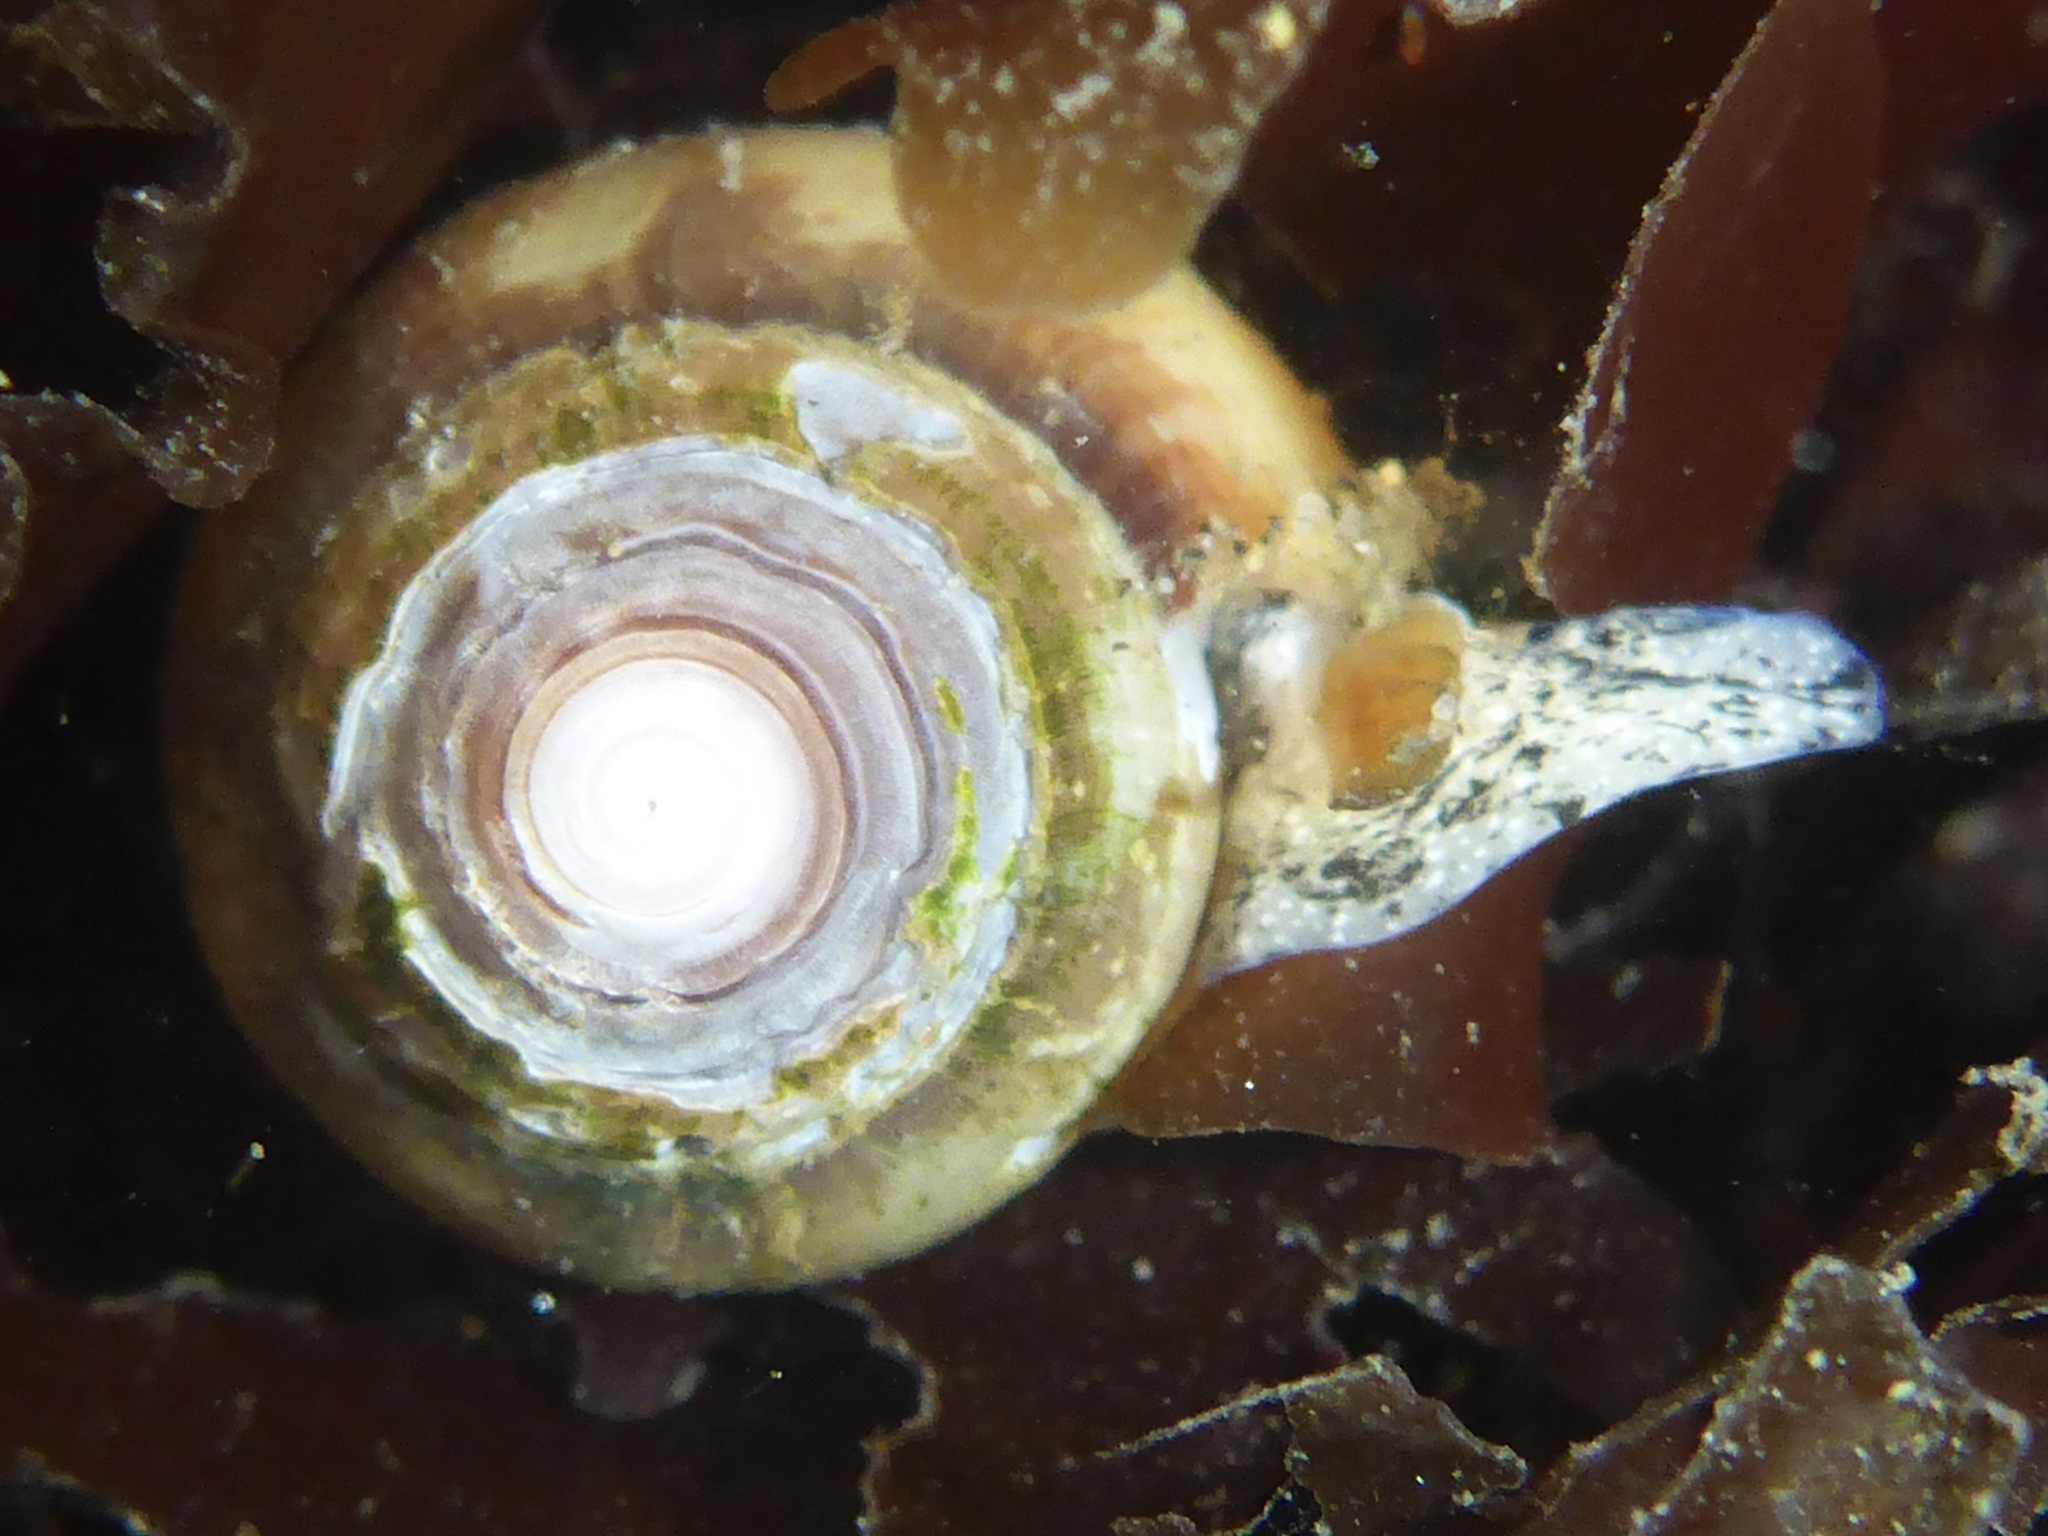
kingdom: Animalia
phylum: Mollusca
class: Gastropoda
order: Neogastropoda
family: Conidae
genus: Californiconus
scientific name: Californiconus californicus
